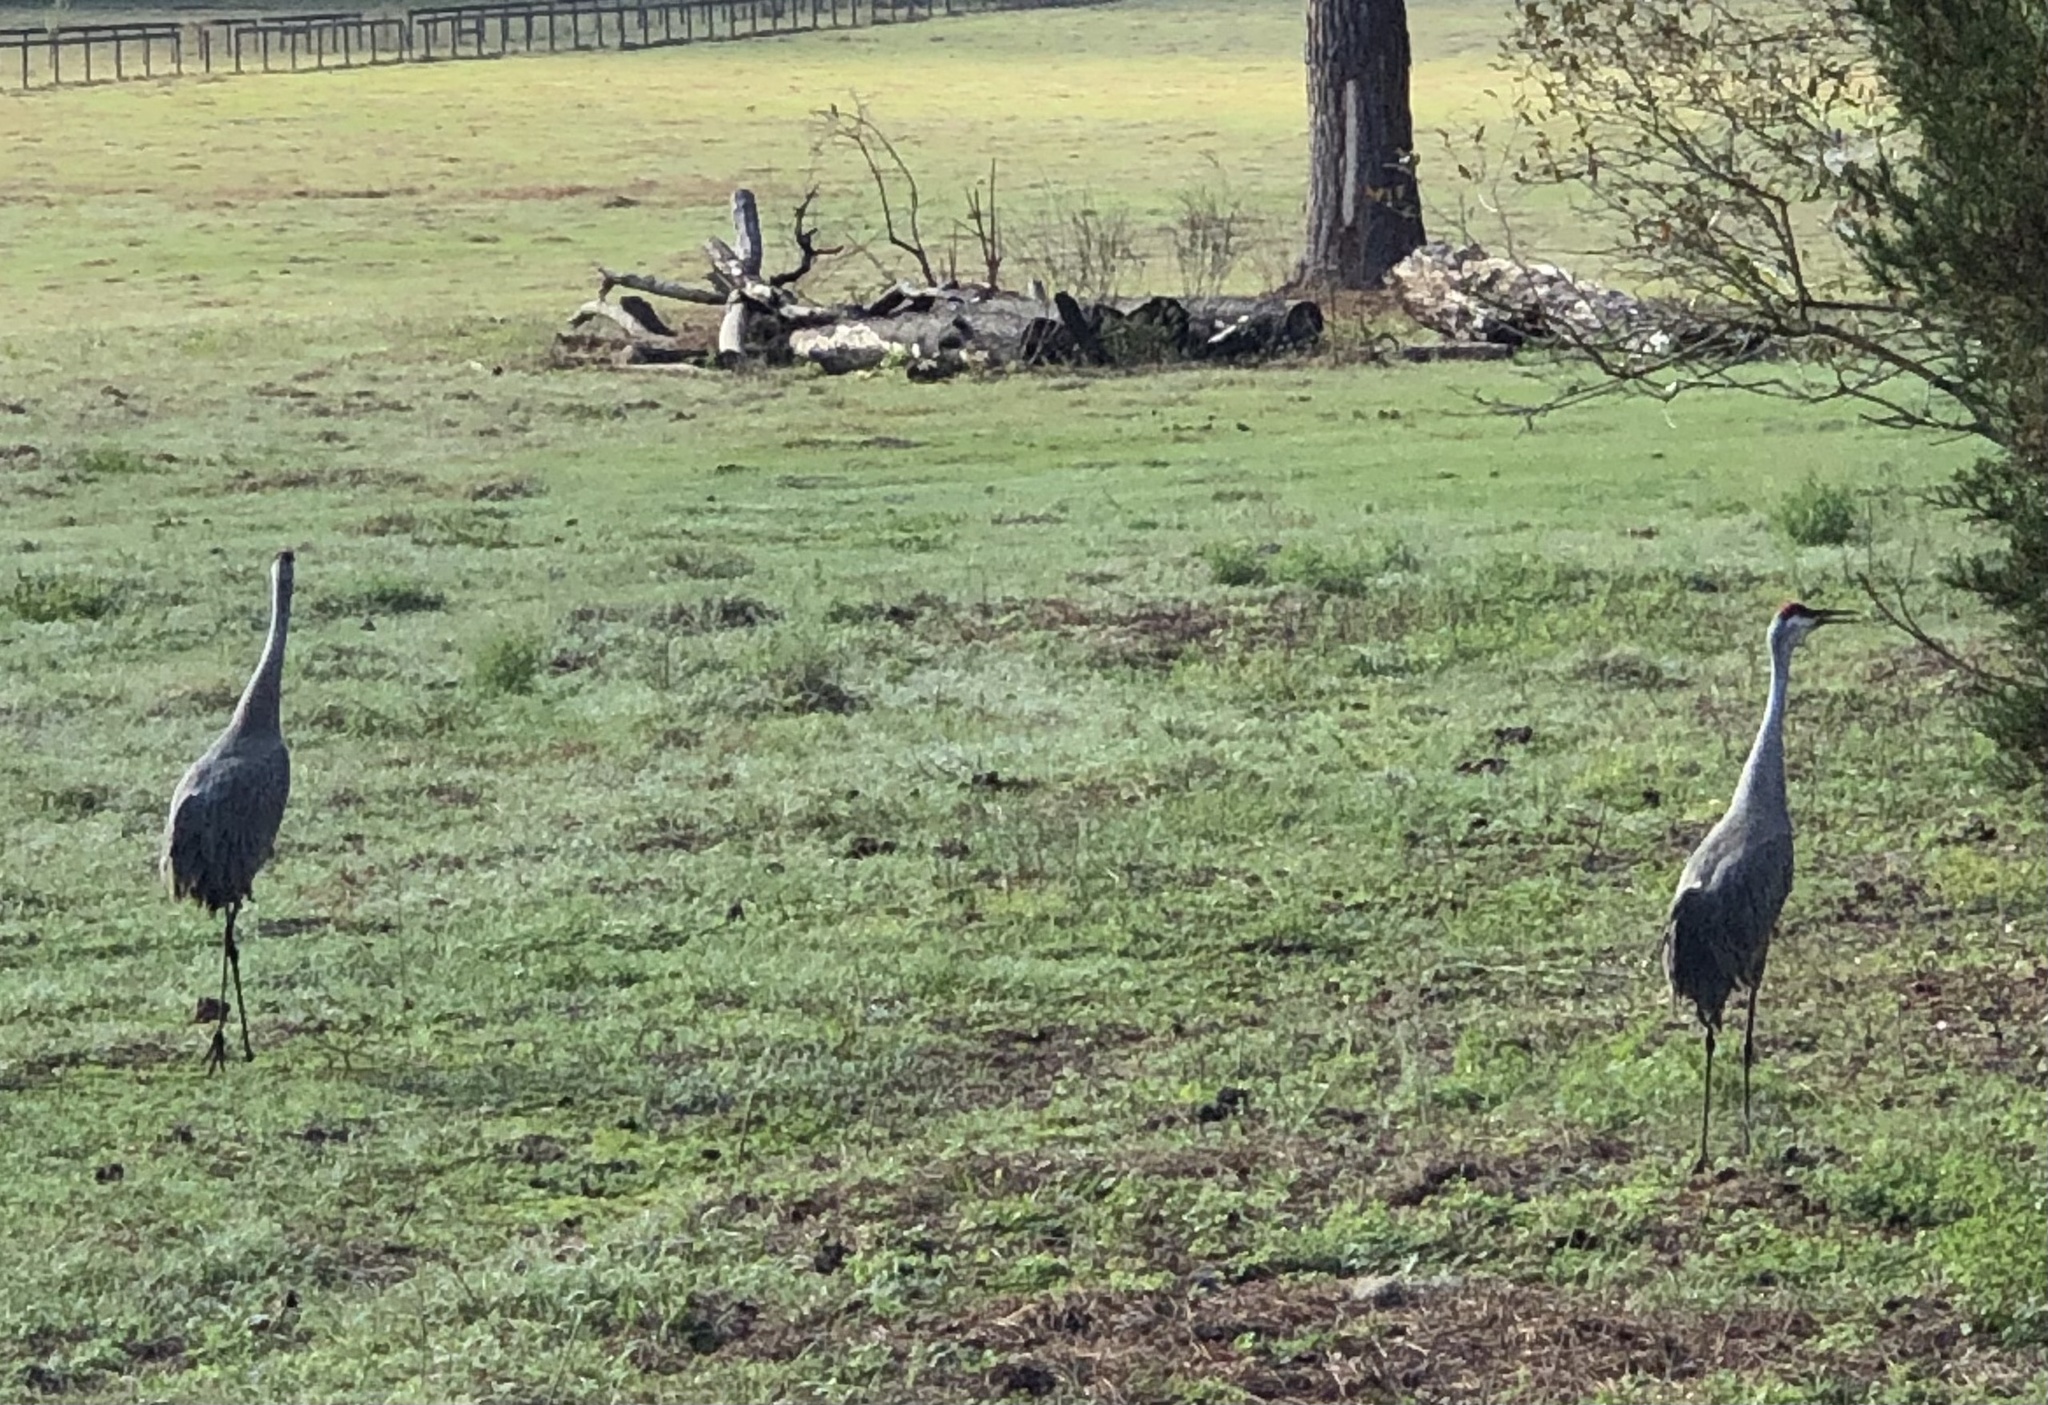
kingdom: Animalia
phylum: Chordata
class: Aves
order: Gruiformes
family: Gruidae
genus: Grus
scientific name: Grus canadensis
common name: Sandhill crane
